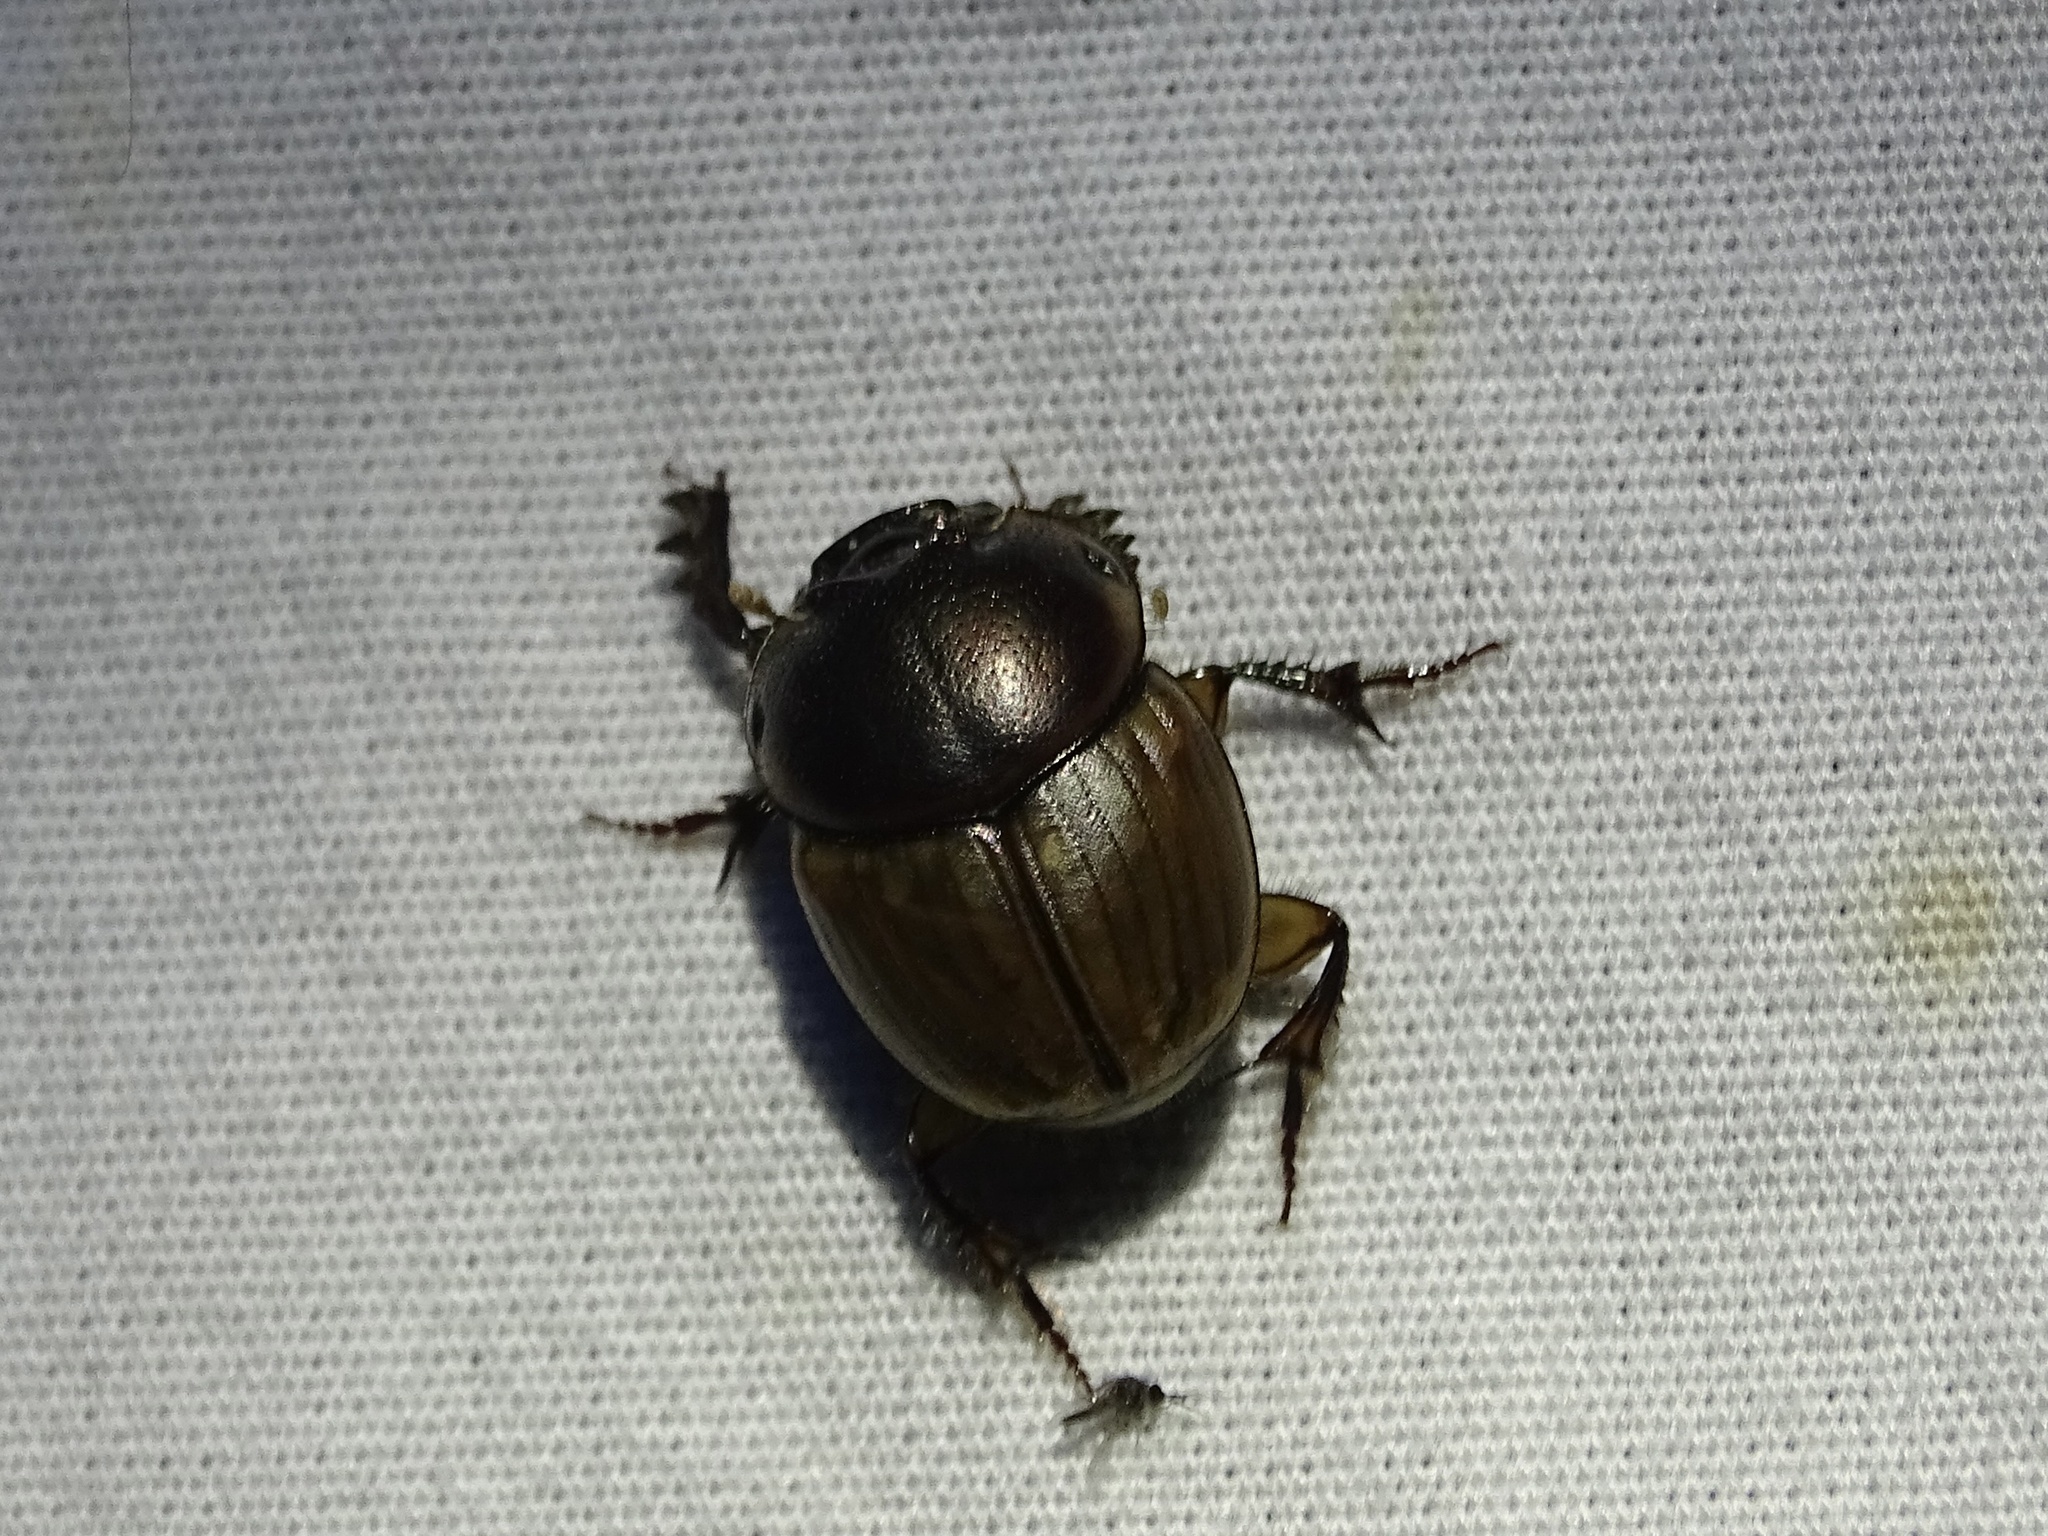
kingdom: Animalia
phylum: Arthropoda
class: Insecta
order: Coleoptera
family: Scarabaeidae
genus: Digitonthophagus
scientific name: Digitonthophagus gazella
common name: Brown dung beetle
